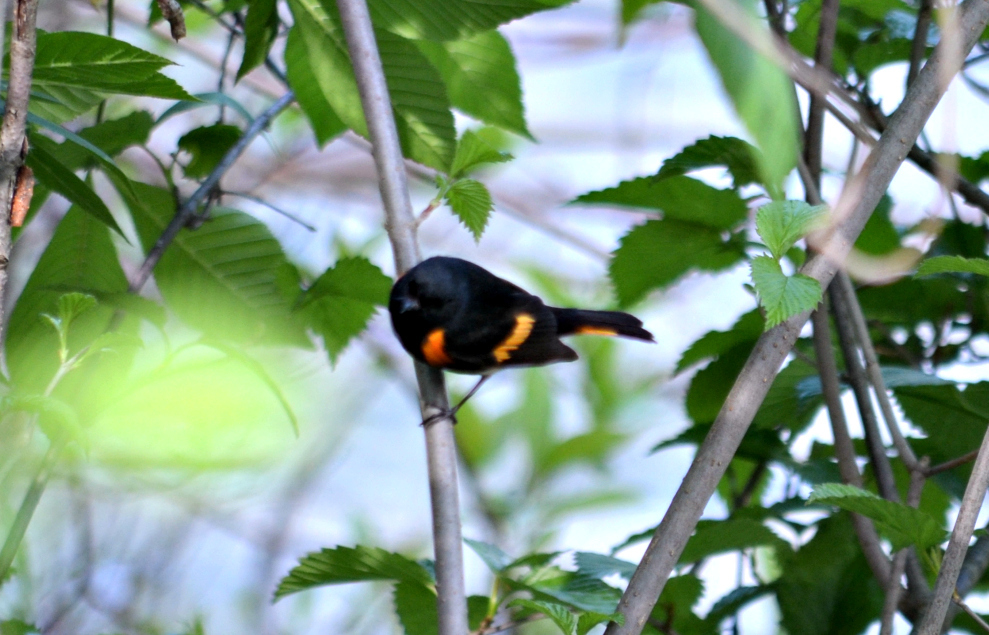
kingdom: Animalia
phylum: Chordata
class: Aves
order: Passeriformes
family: Parulidae
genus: Setophaga
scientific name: Setophaga ruticilla
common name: American redstart
